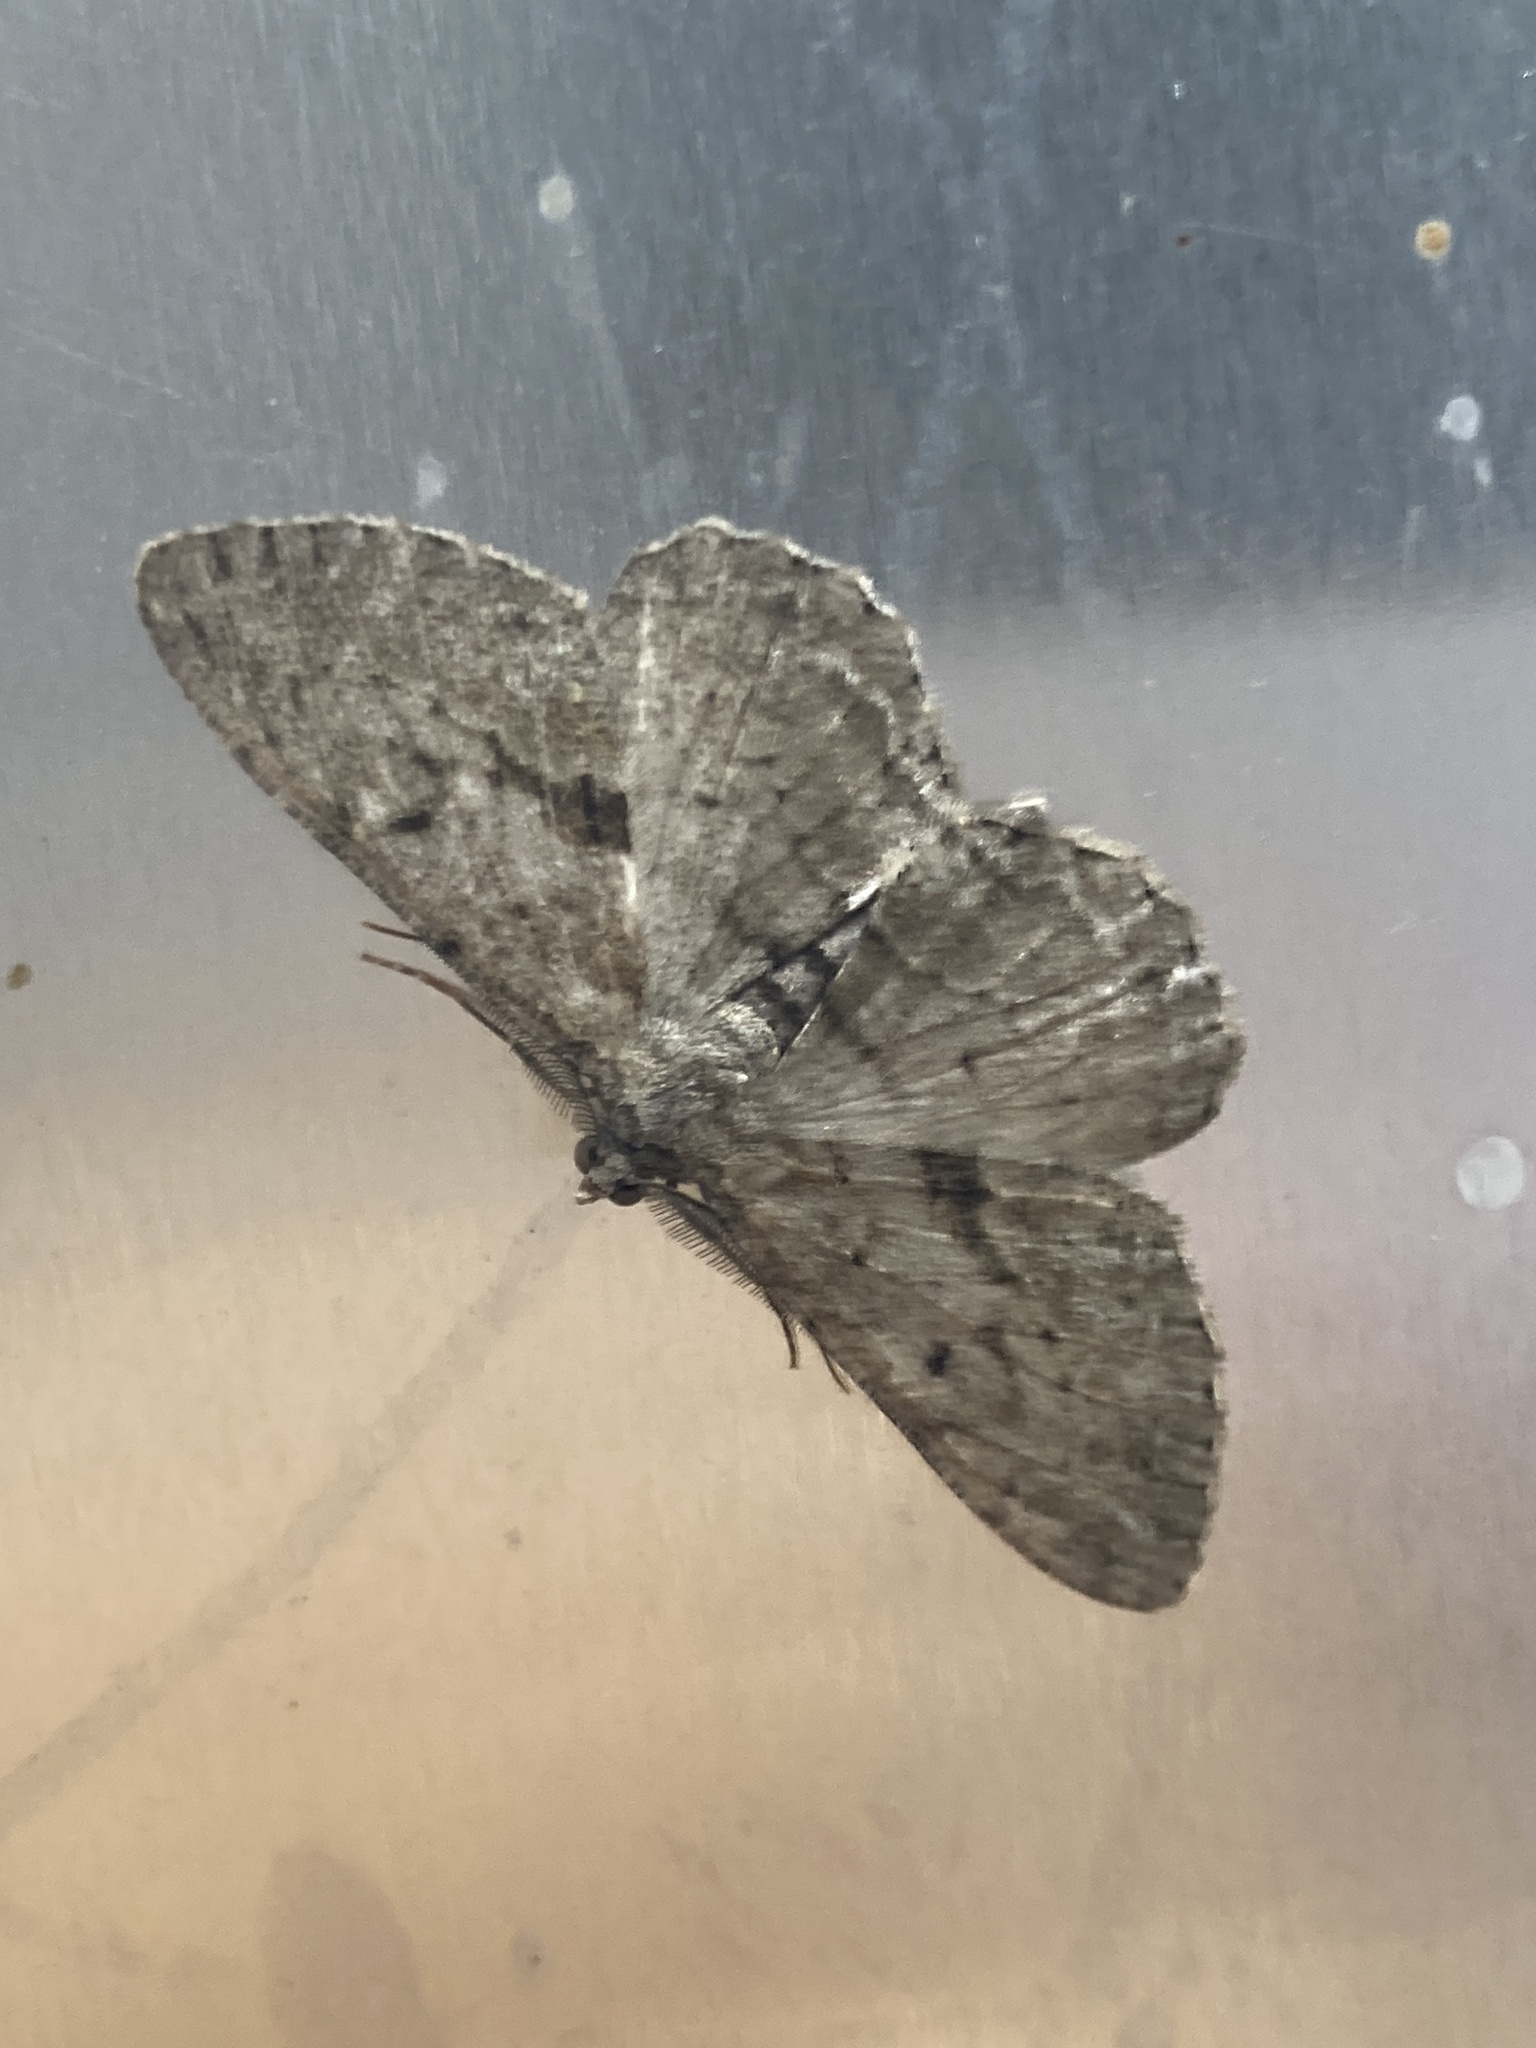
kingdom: Animalia
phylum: Arthropoda
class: Insecta
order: Lepidoptera
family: Geometridae
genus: Peribatodes
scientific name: Peribatodes rhomboidaria
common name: Willow beauty
